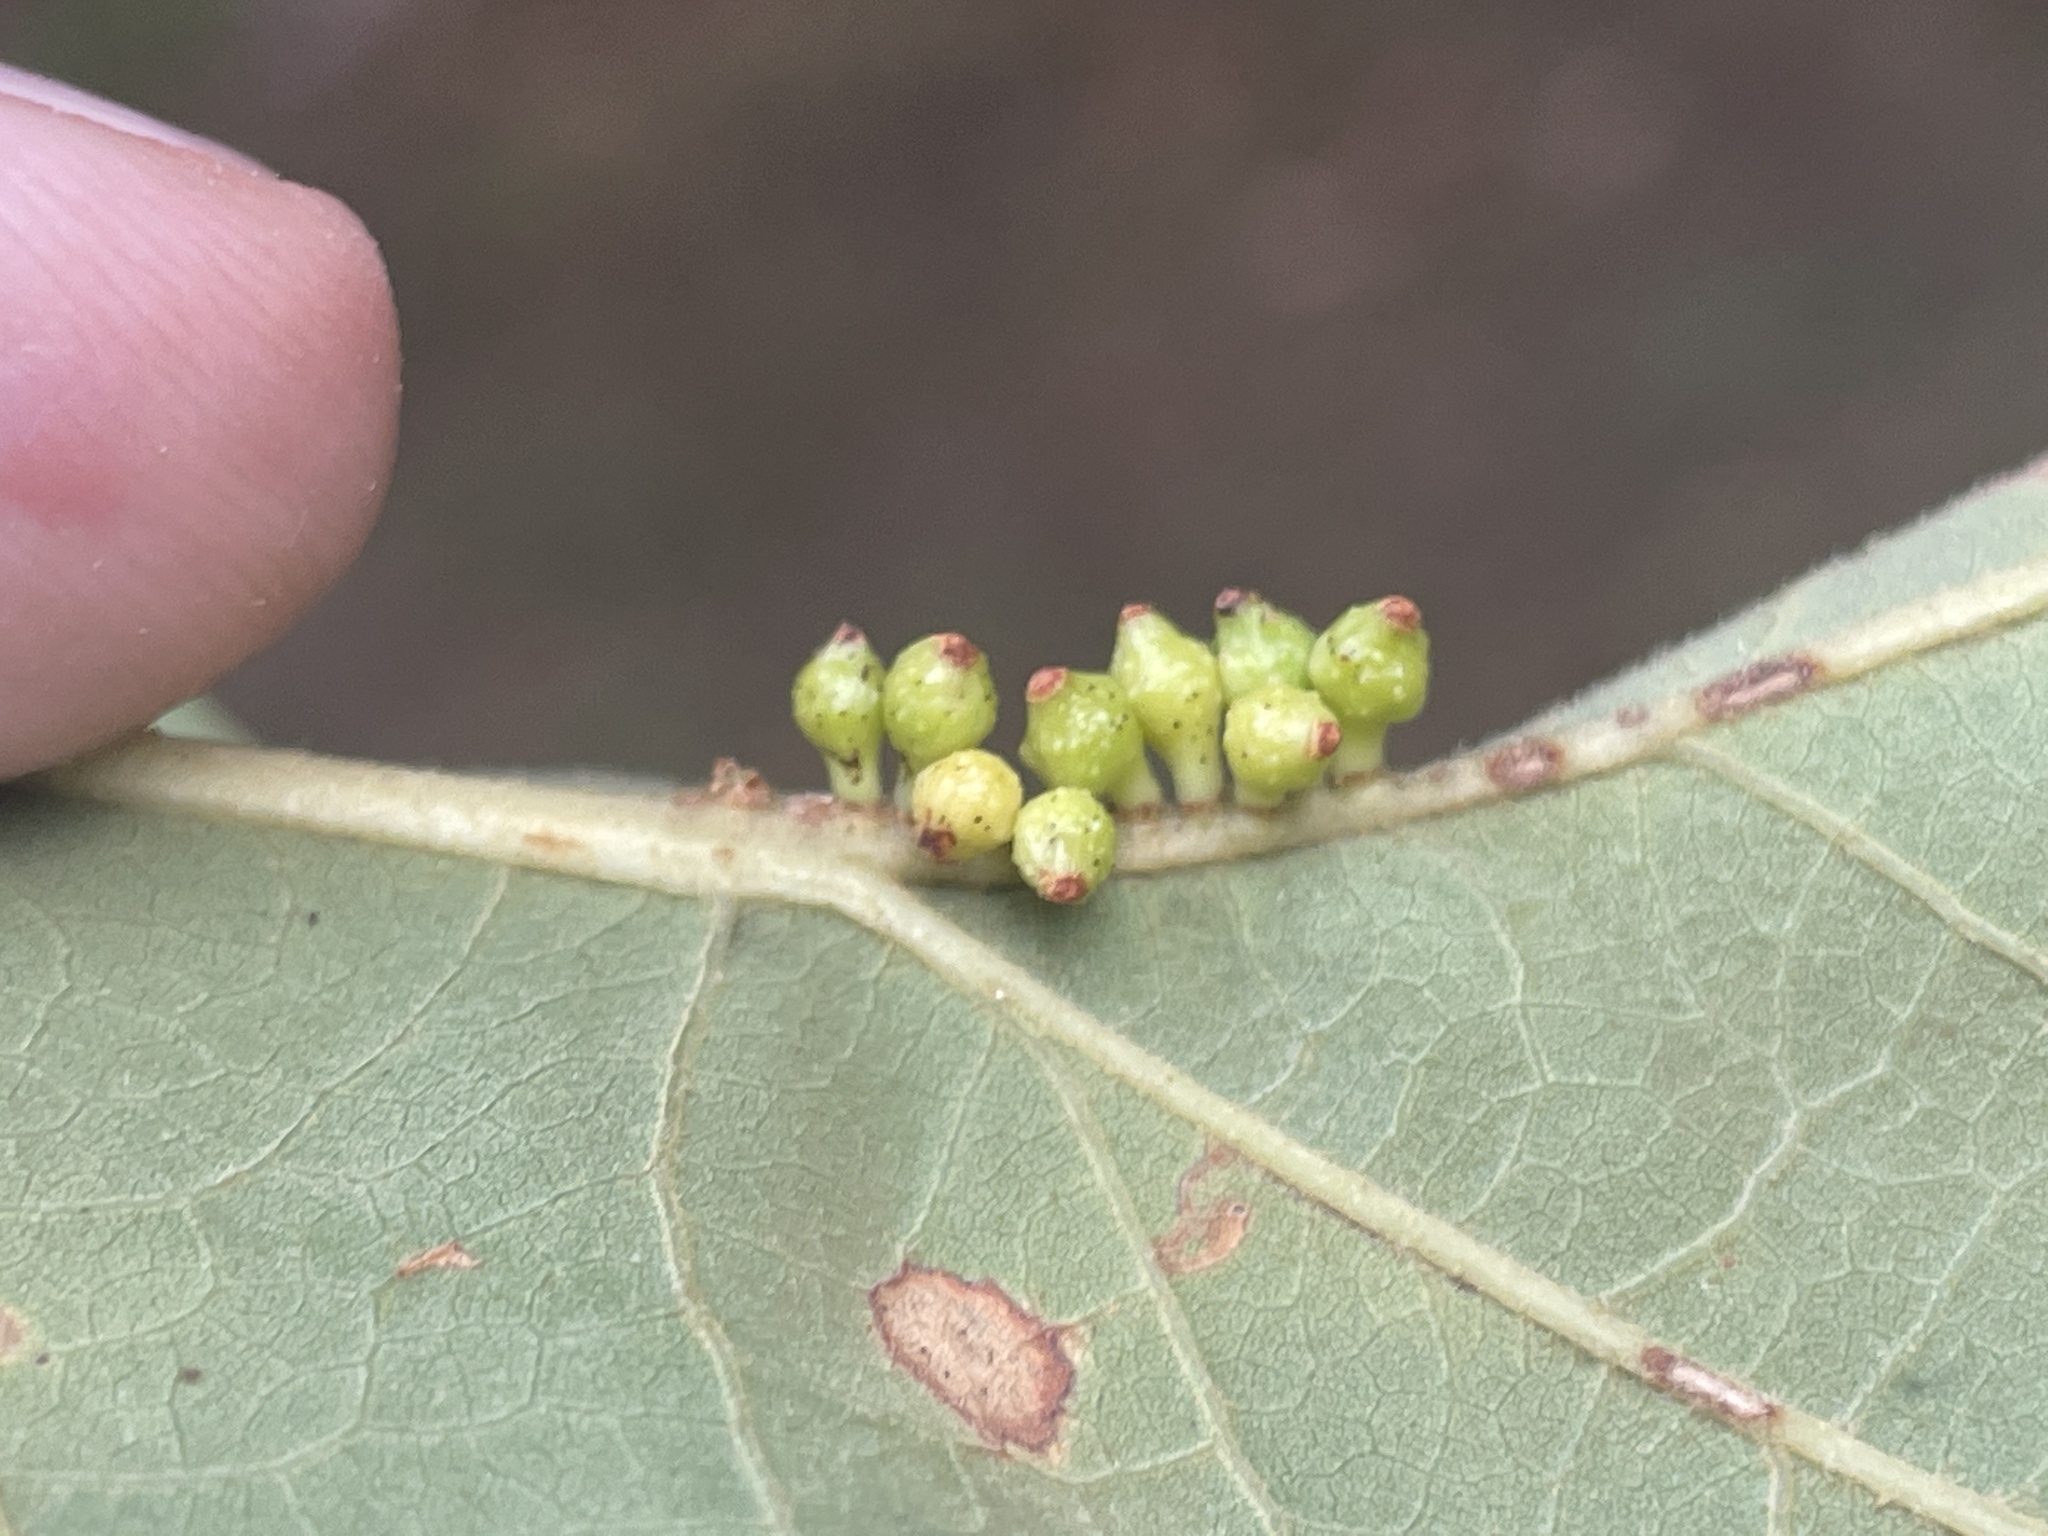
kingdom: Animalia
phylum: Arthropoda
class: Insecta
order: Hymenoptera
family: Cynipidae
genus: Andricus
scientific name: Andricus
